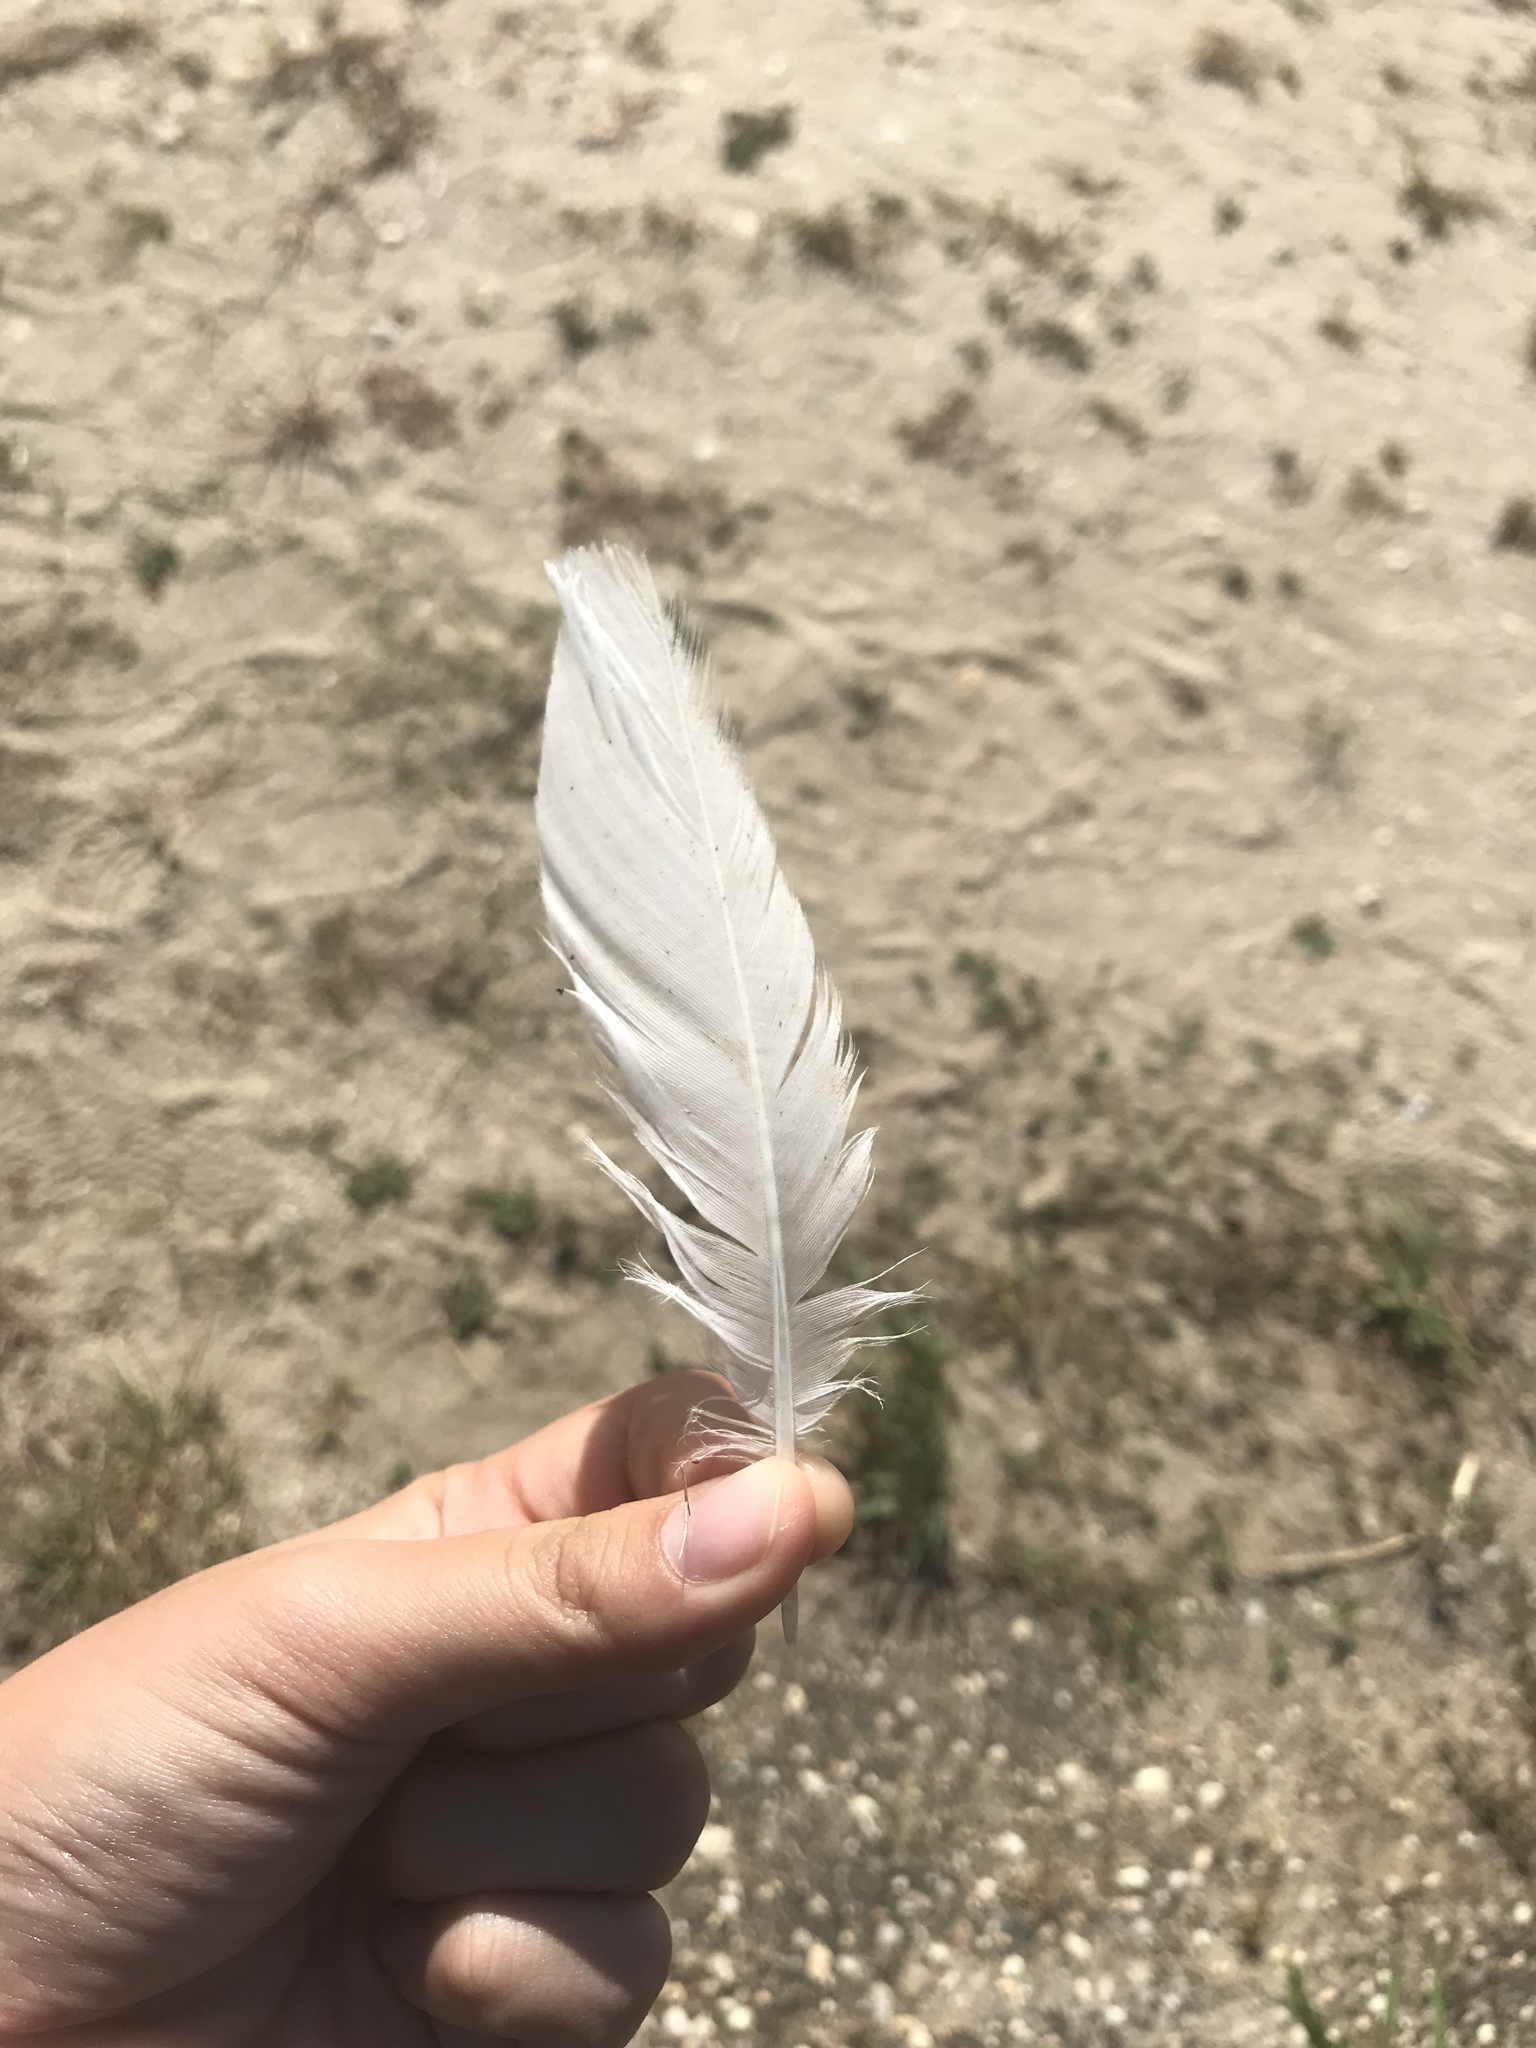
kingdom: Animalia
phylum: Chordata
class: Aves
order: Charadriiformes
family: Laridae
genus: Leucophaeus
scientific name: Leucophaeus atricilla
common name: Laughing gull
